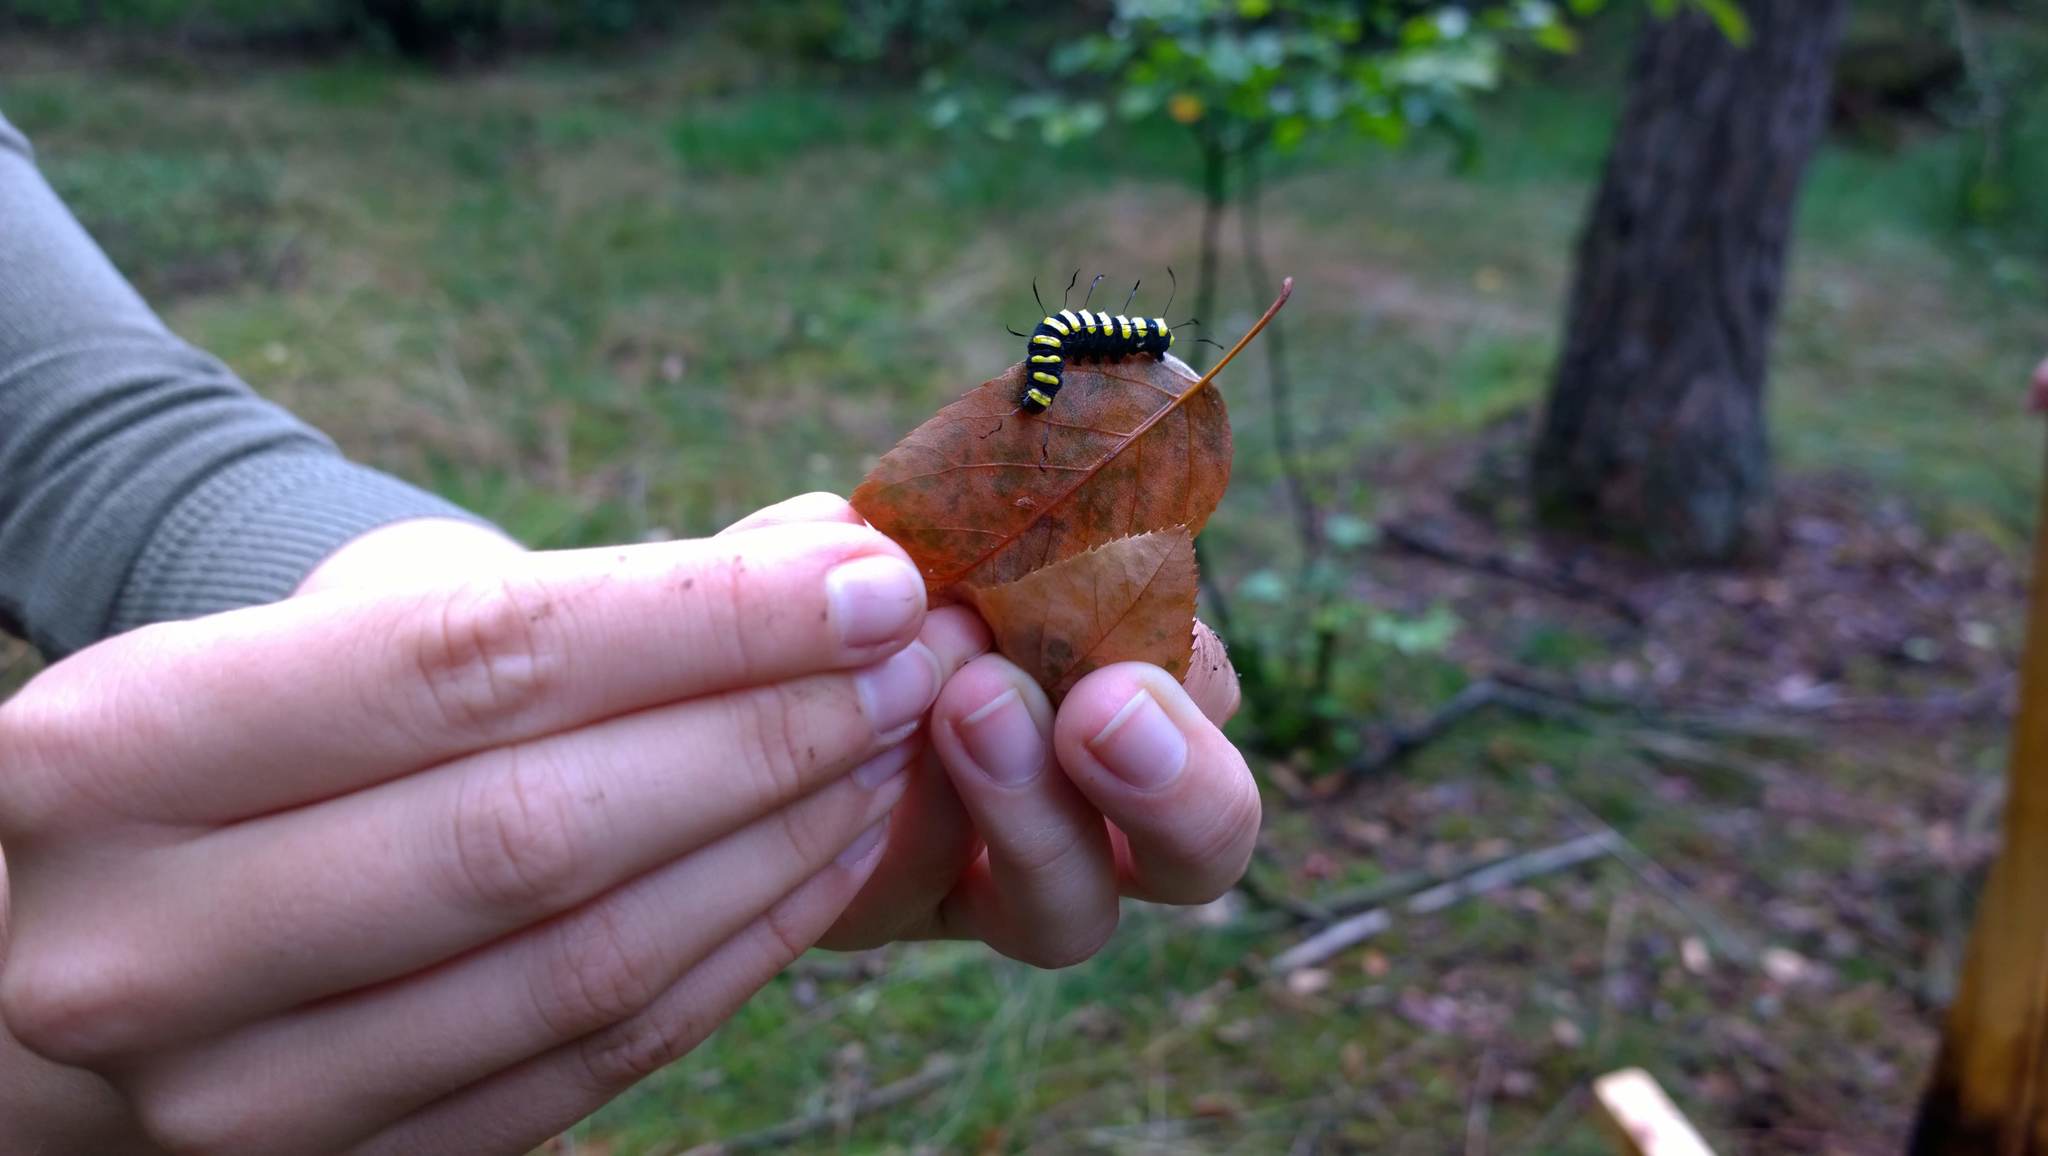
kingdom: Animalia
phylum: Arthropoda
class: Insecta
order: Lepidoptera
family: Noctuidae
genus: Acronicta
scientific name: Acronicta alni
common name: Alder moth
